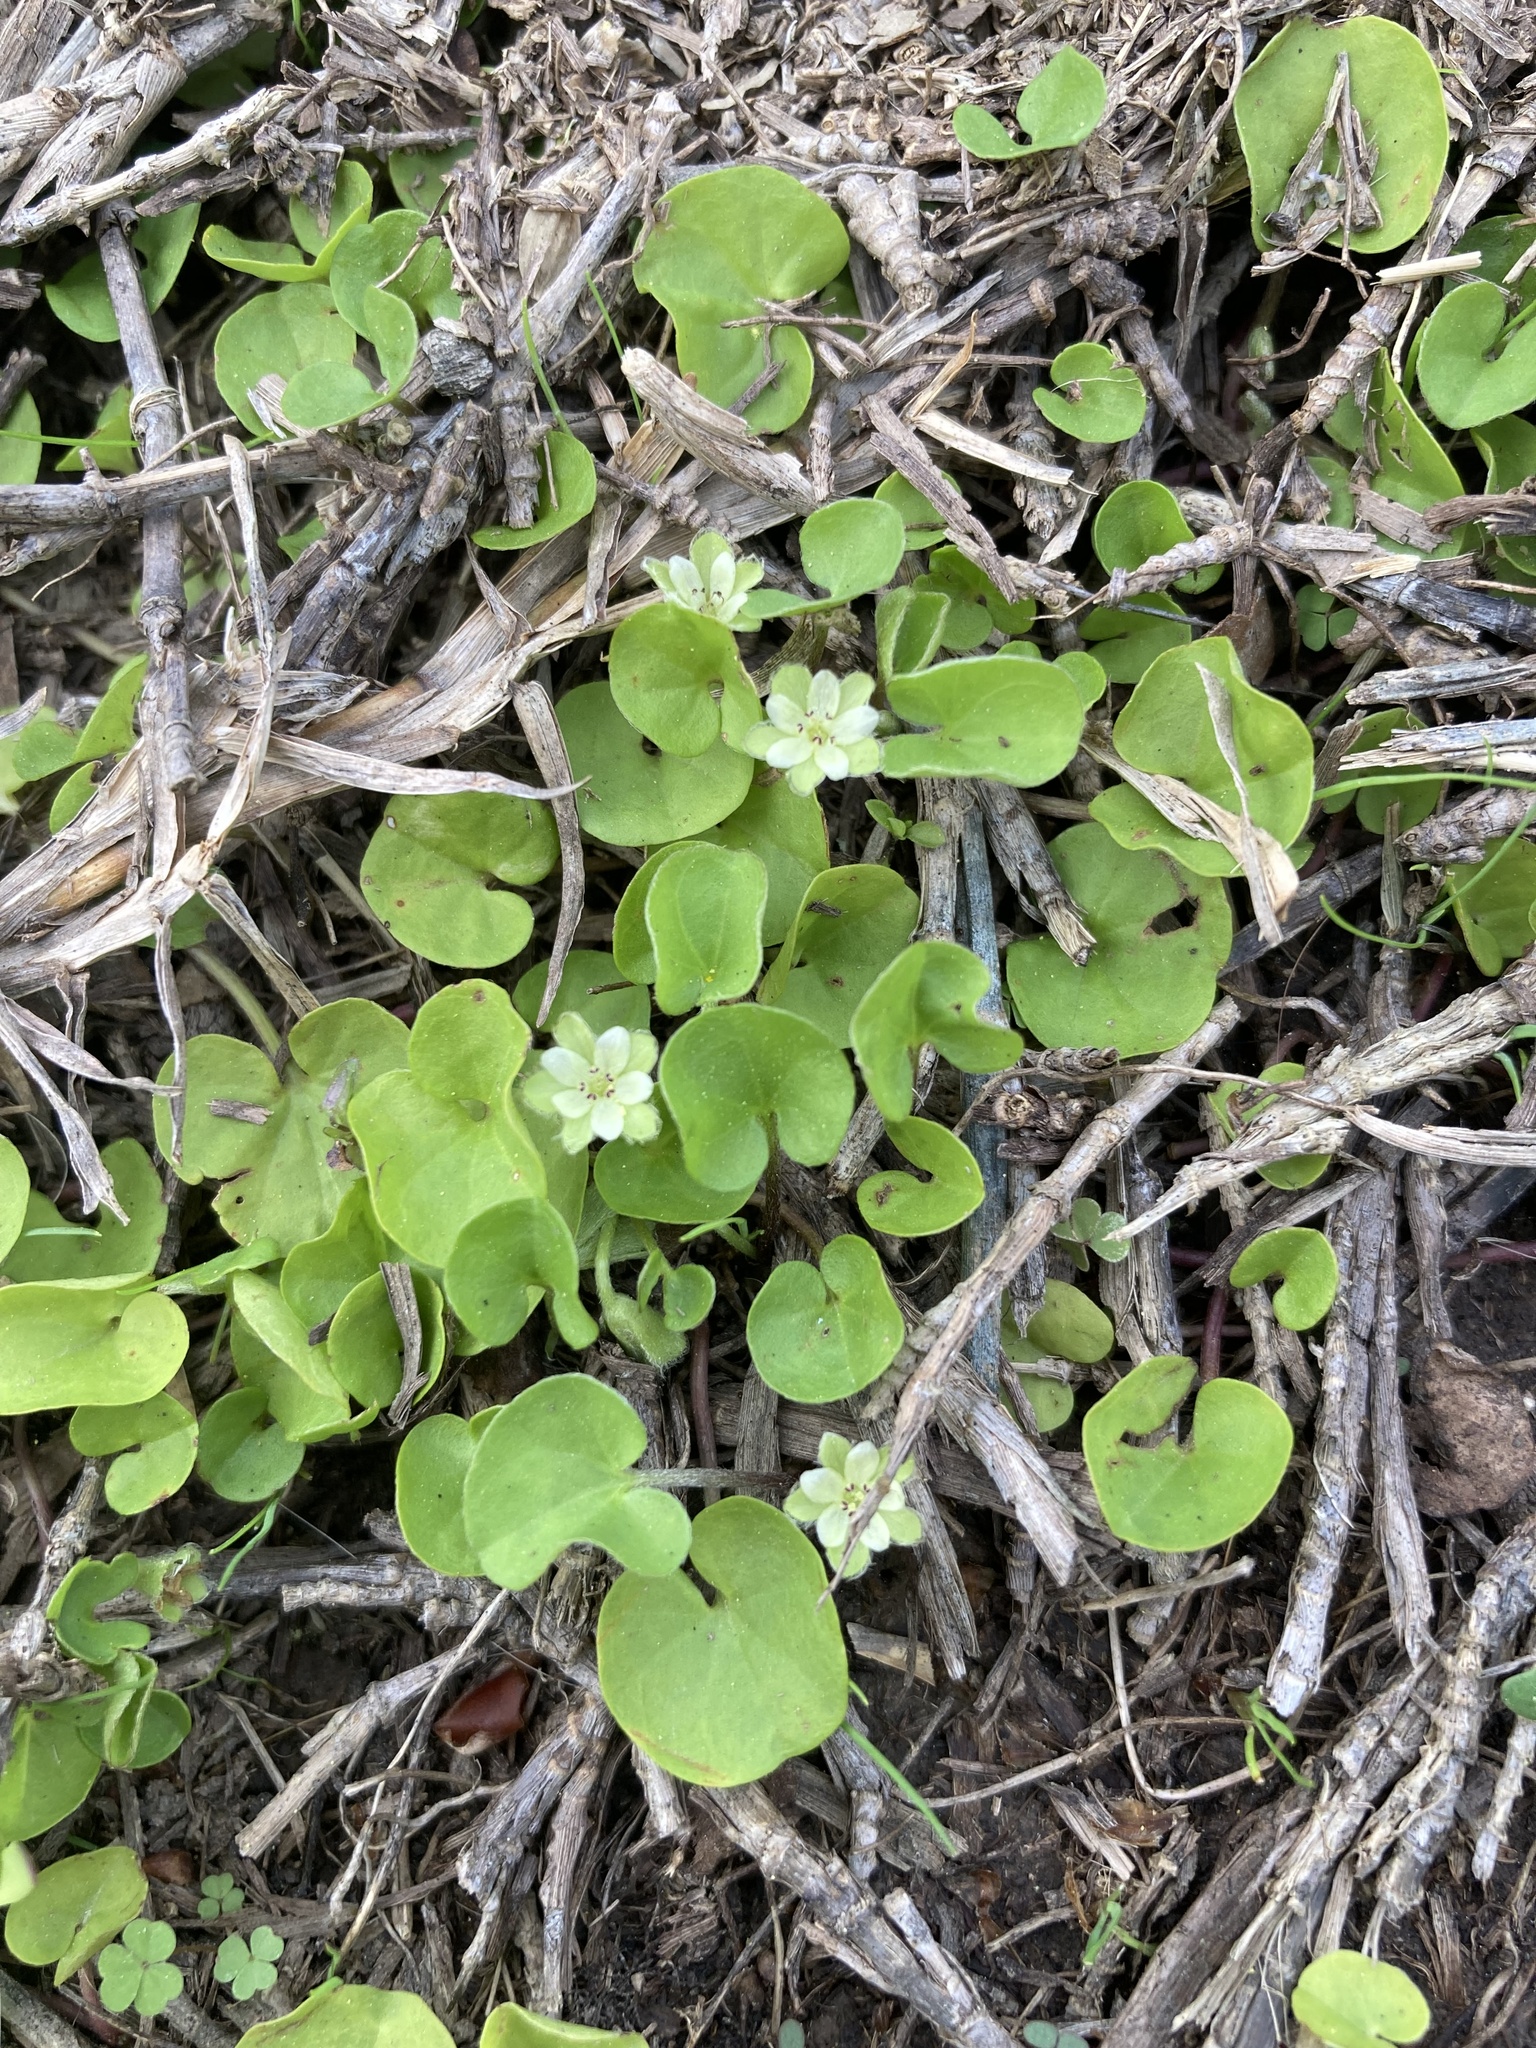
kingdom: Plantae
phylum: Tracheophyta
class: Magnoliopsida
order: Solanales
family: Convolvulaceae
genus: Dichondra
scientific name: Dichondra carolinensis
